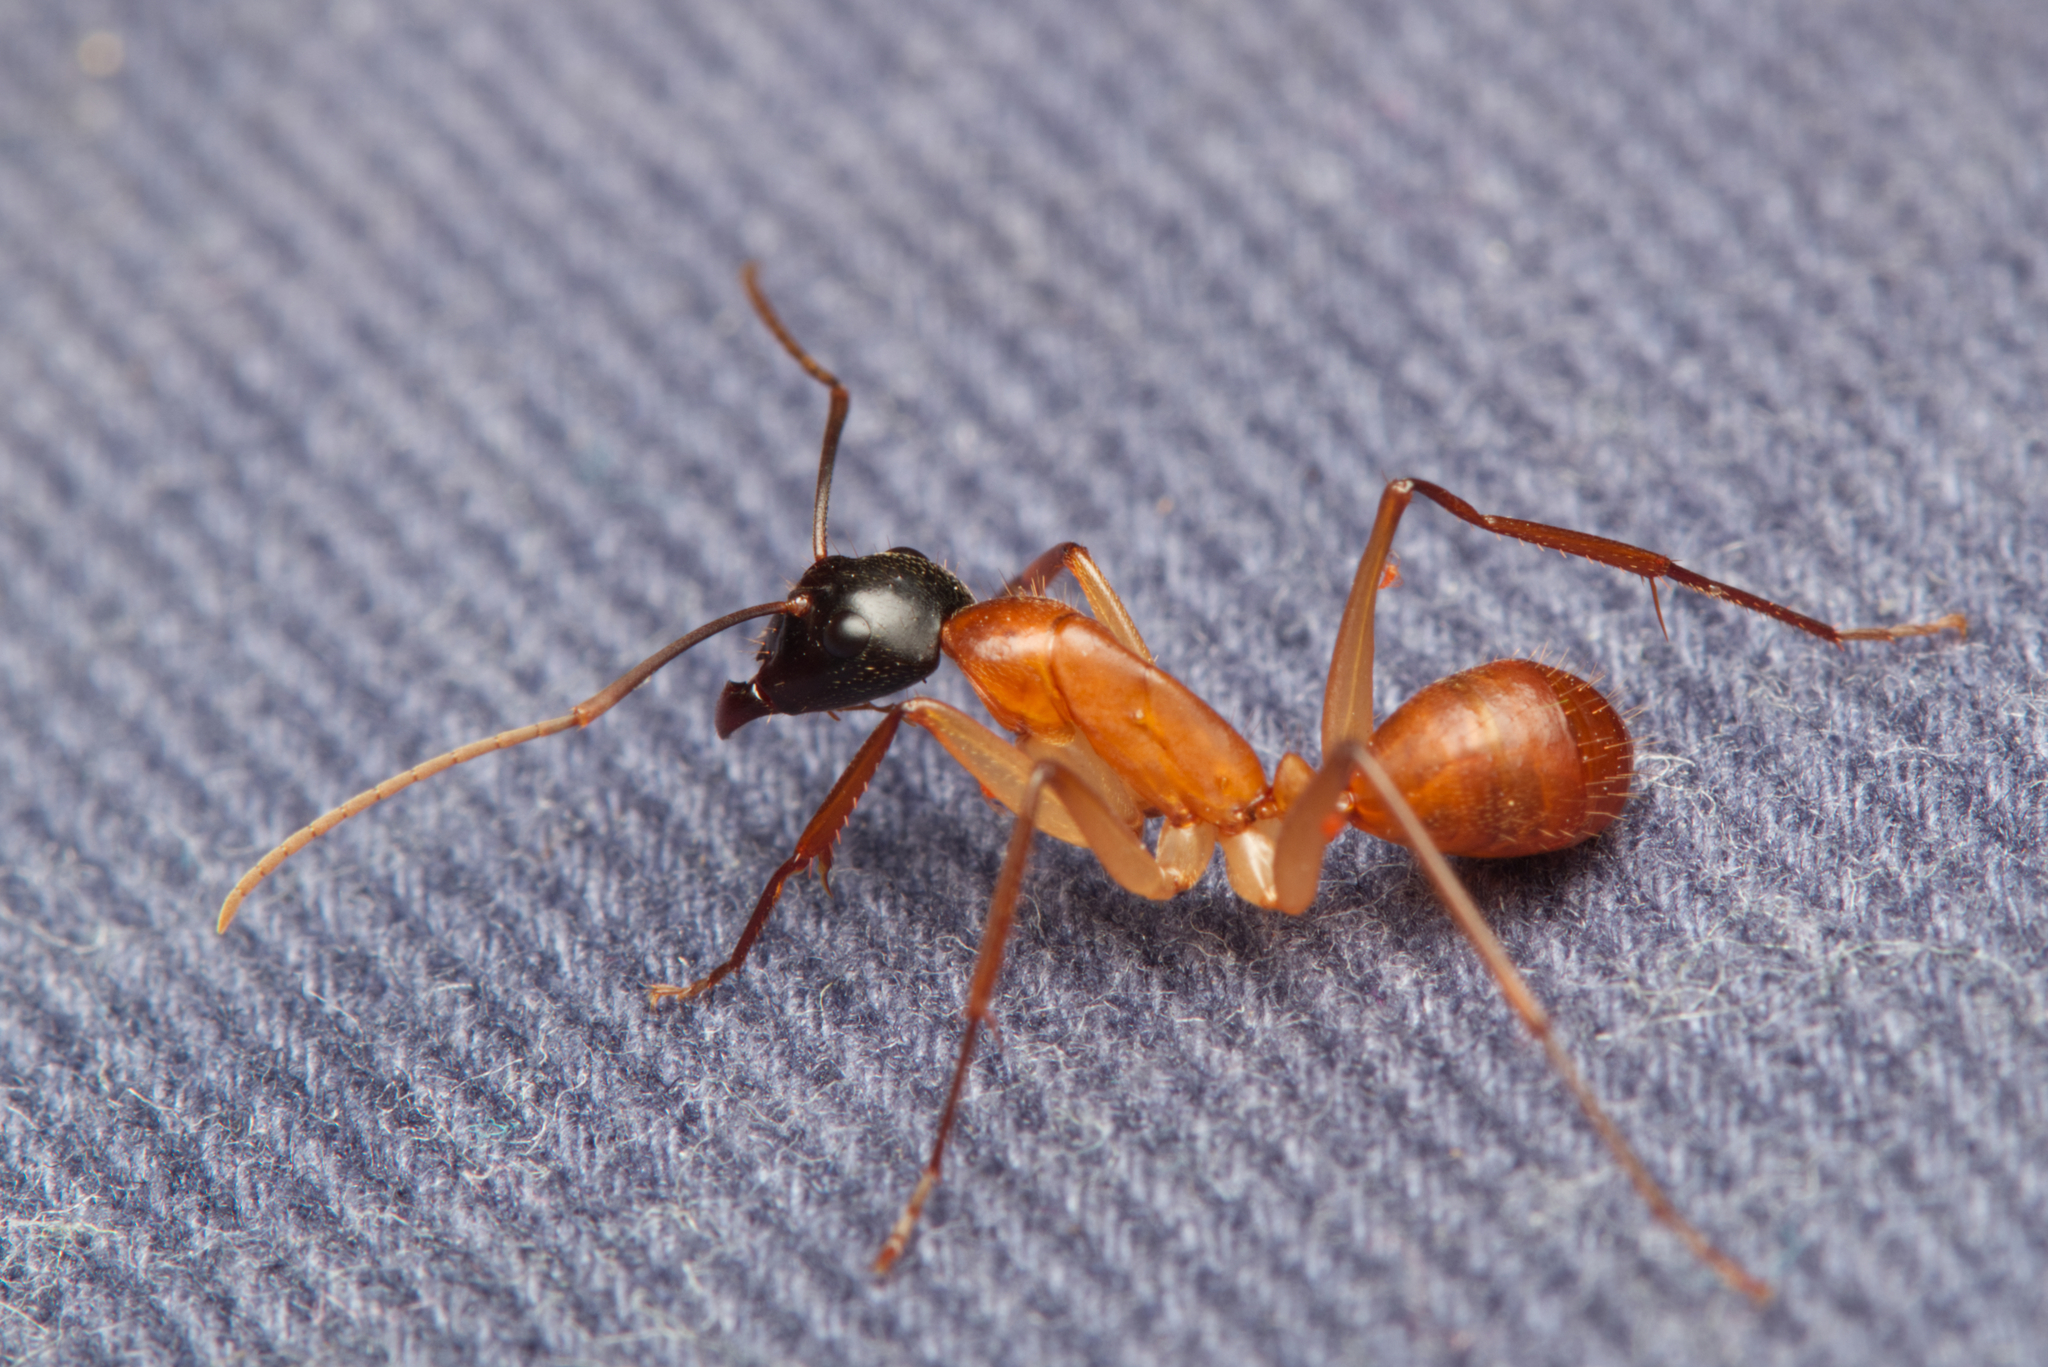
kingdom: Animalia
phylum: Arthropoda
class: Insecta
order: Hymenoptera
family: Formicidae
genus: Camponotus
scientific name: Camponotus eastwoodi
